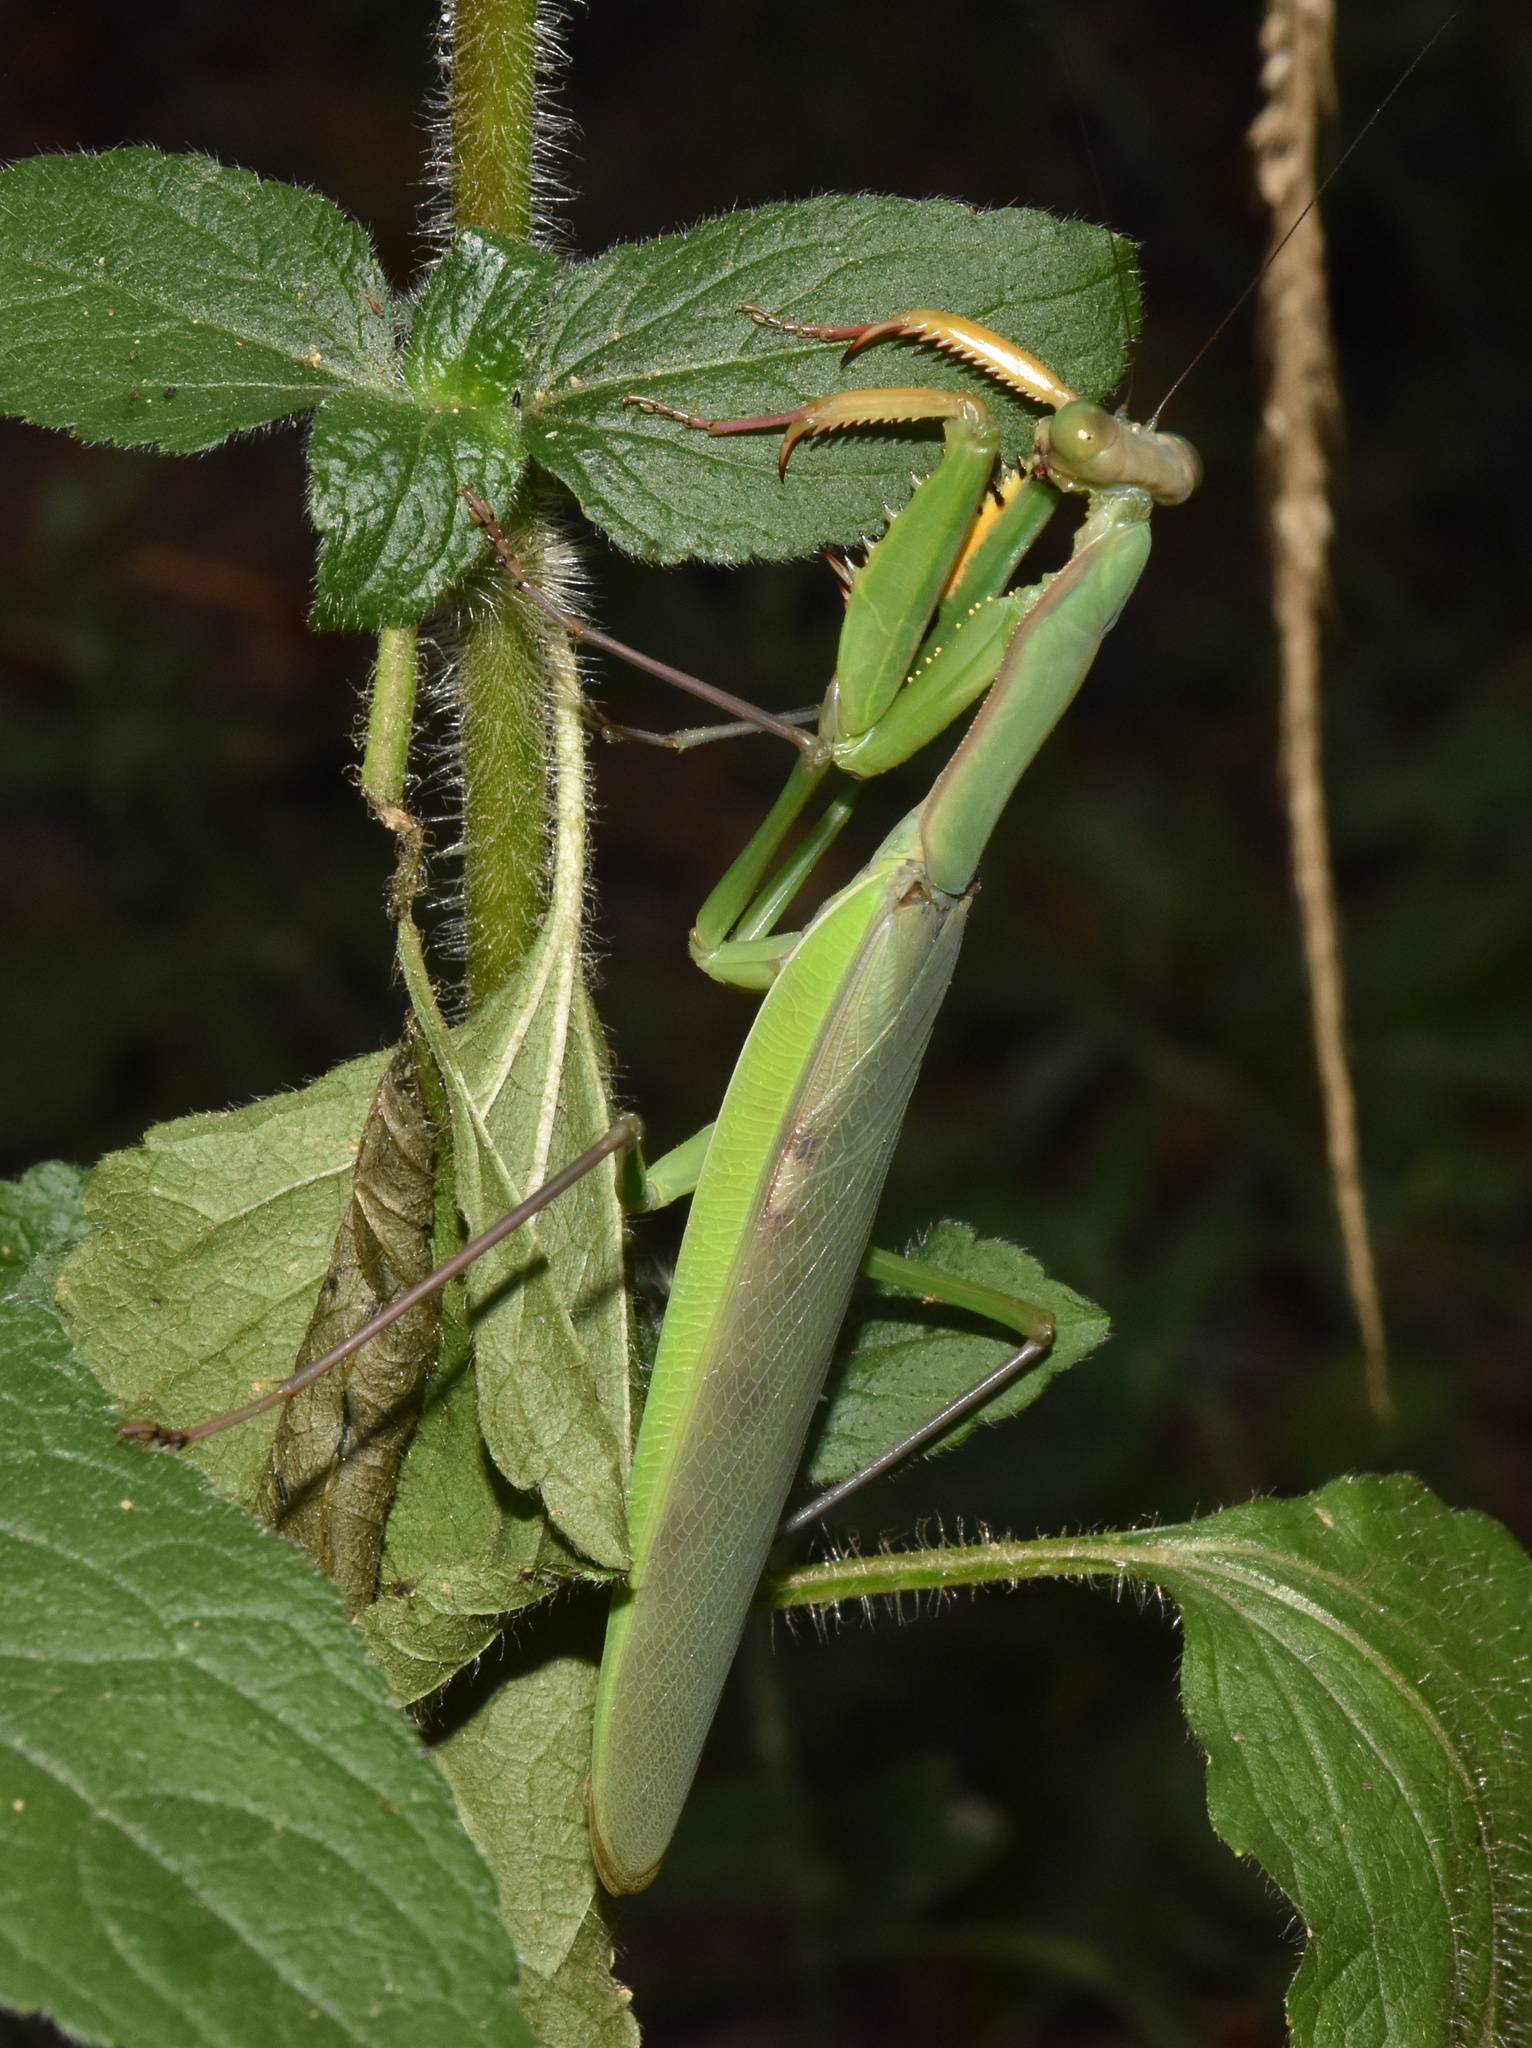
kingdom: Animalia
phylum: Arthropoda
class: Insecta
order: Mantodea
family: Mantidae
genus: Polyspilota
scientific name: Polyspilota aeruginosa
